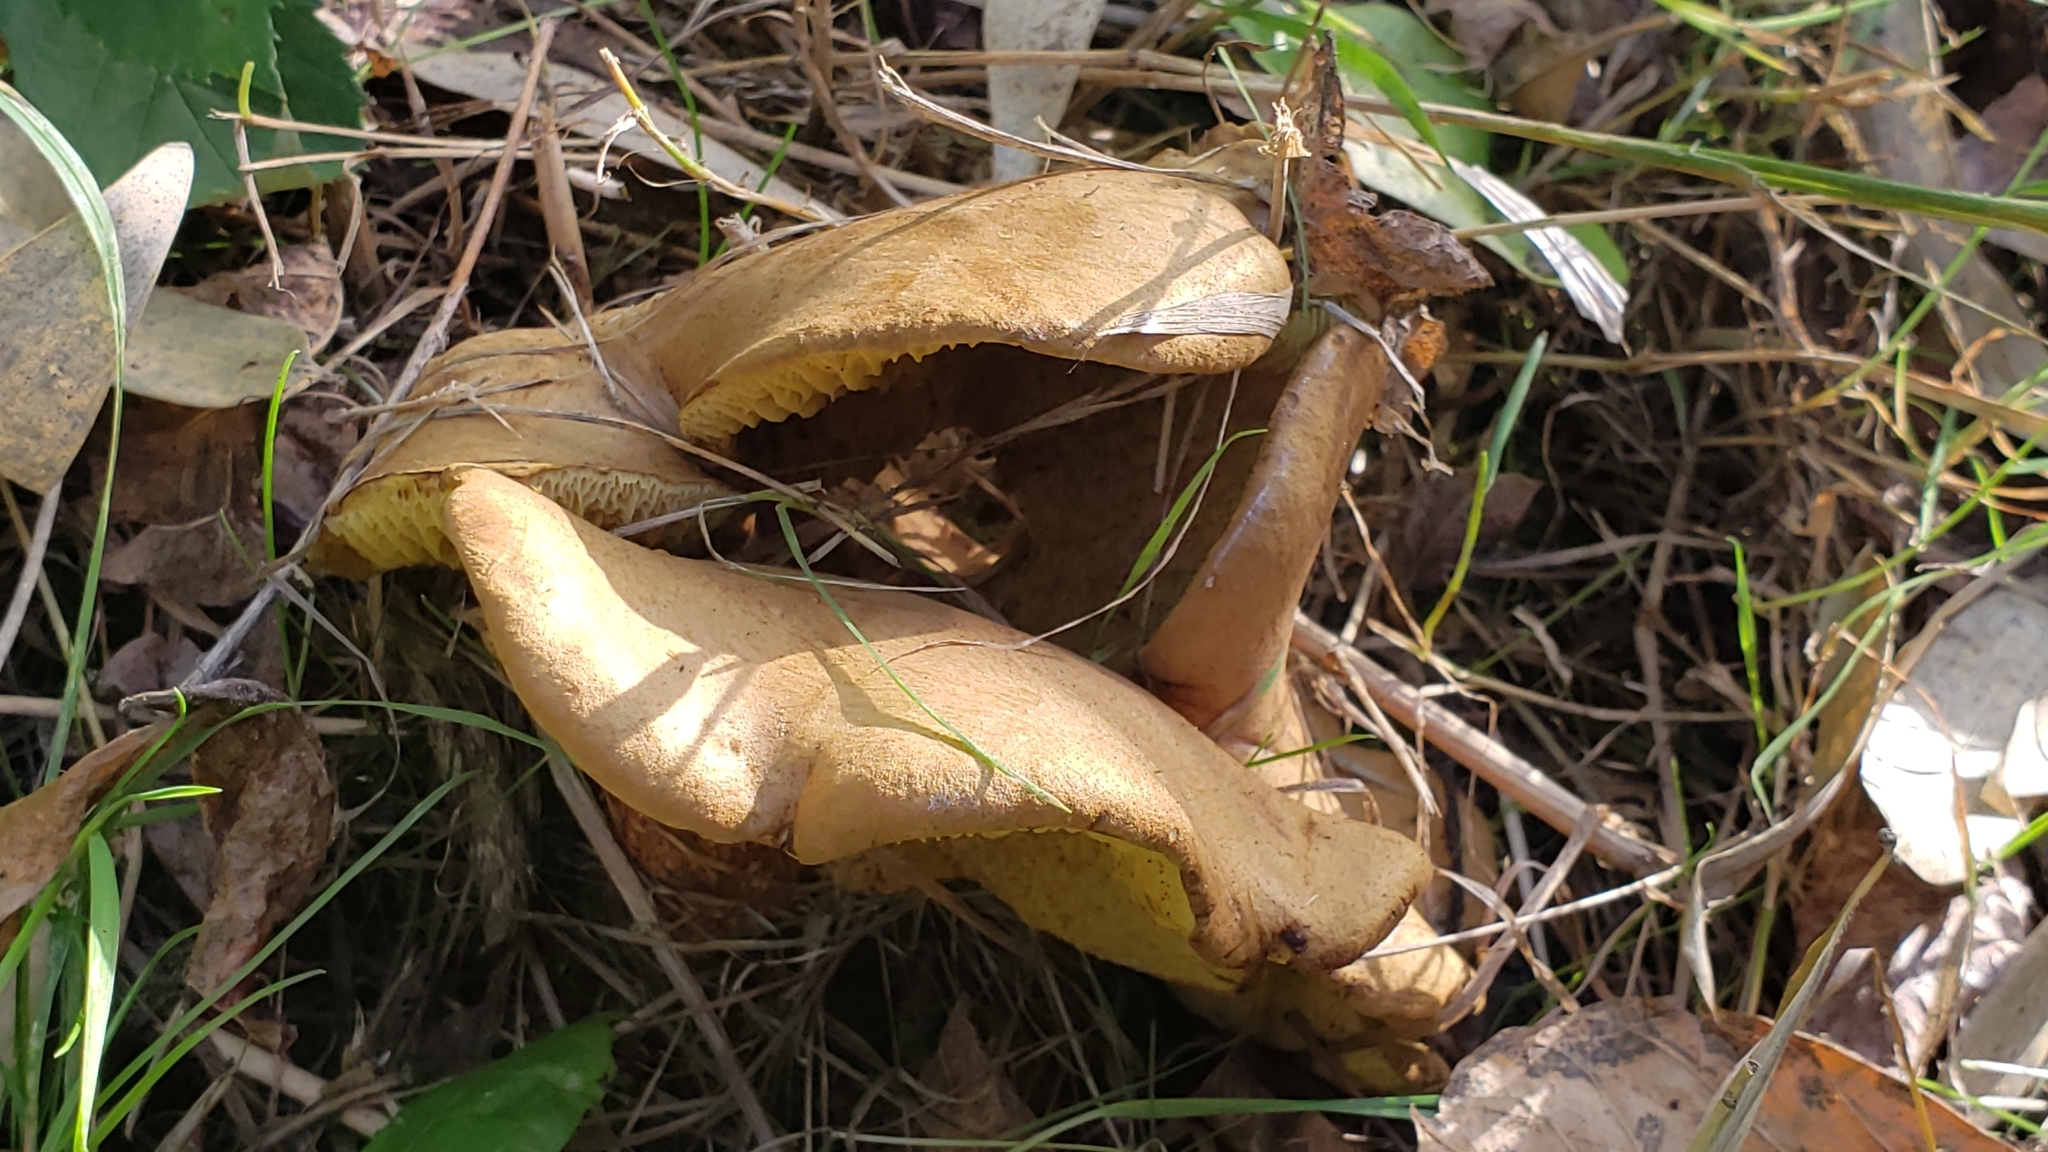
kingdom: Fungi
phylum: Basidiomycota
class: Agaricomycetes
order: Boletales
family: Boletinellaceae
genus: Boletinellus
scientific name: Boletinellus merulioides
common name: Ash tree bolete
